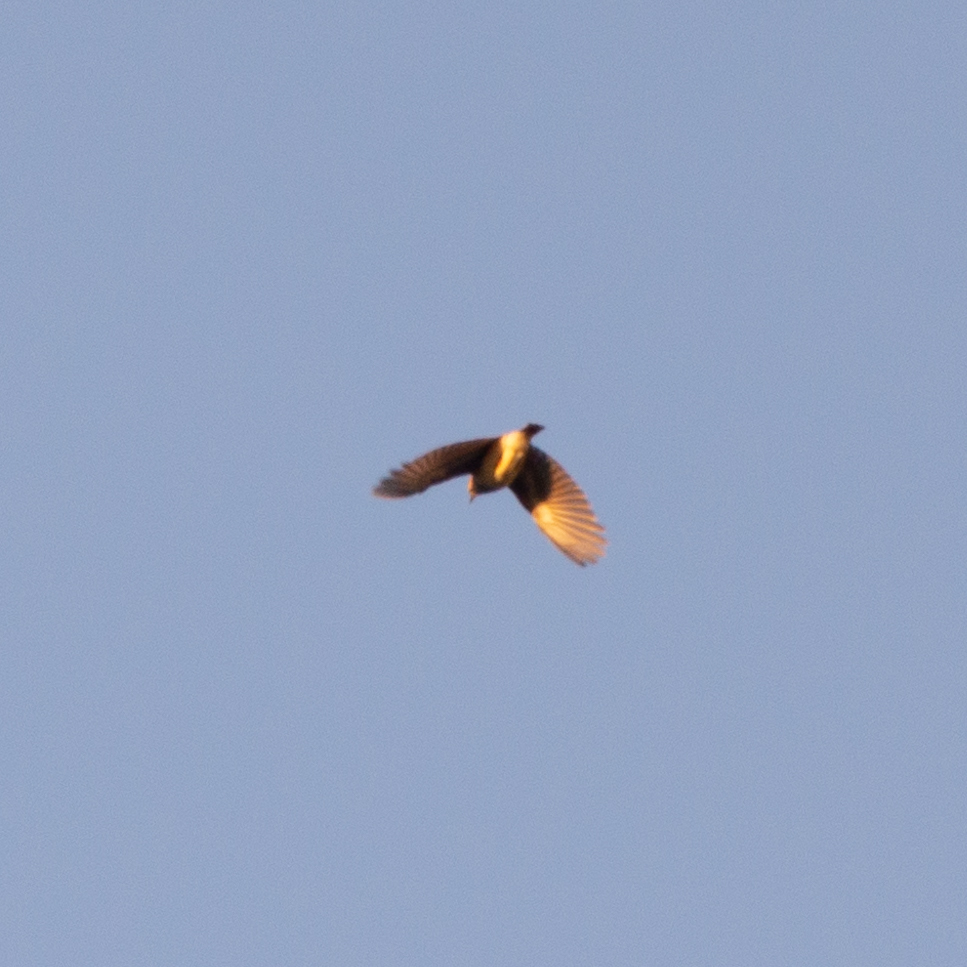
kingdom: Animalia
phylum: Chordata
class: Aves
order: Passeriformes
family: Alaudidae
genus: Lullula
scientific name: Lullula arborea
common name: Woodlark
